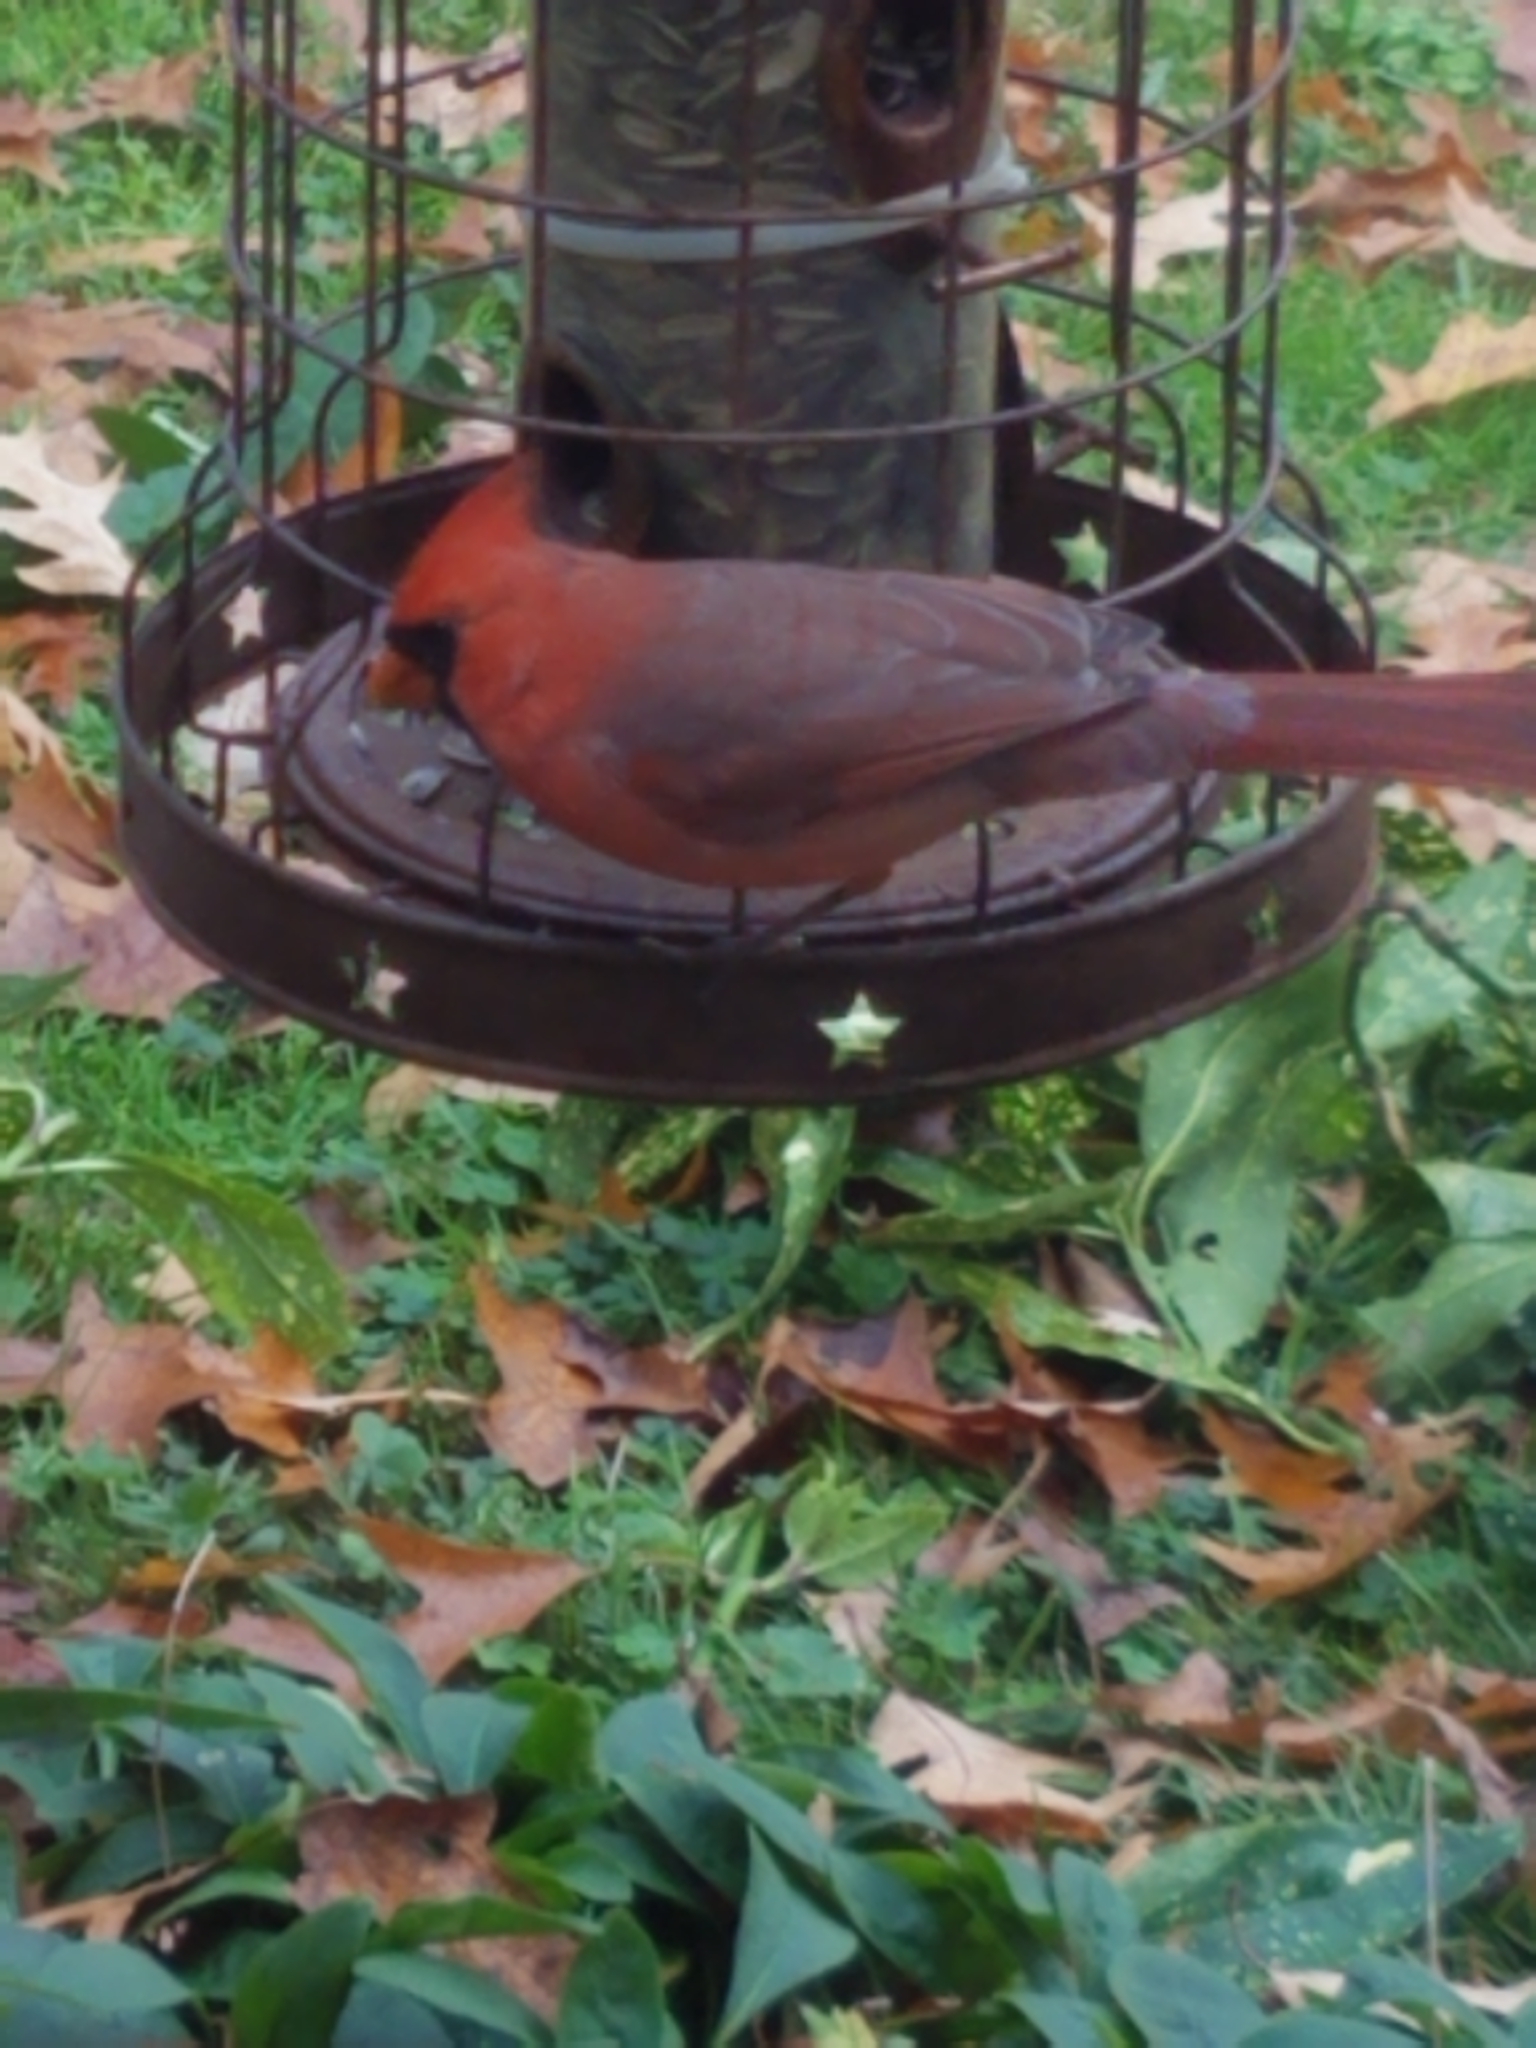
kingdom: Animalia
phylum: Chordata
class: Aves
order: Passeriformes
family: Cardinalidae
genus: Cardinalis
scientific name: Cardinalis cardinalis
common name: Northern cardinal
